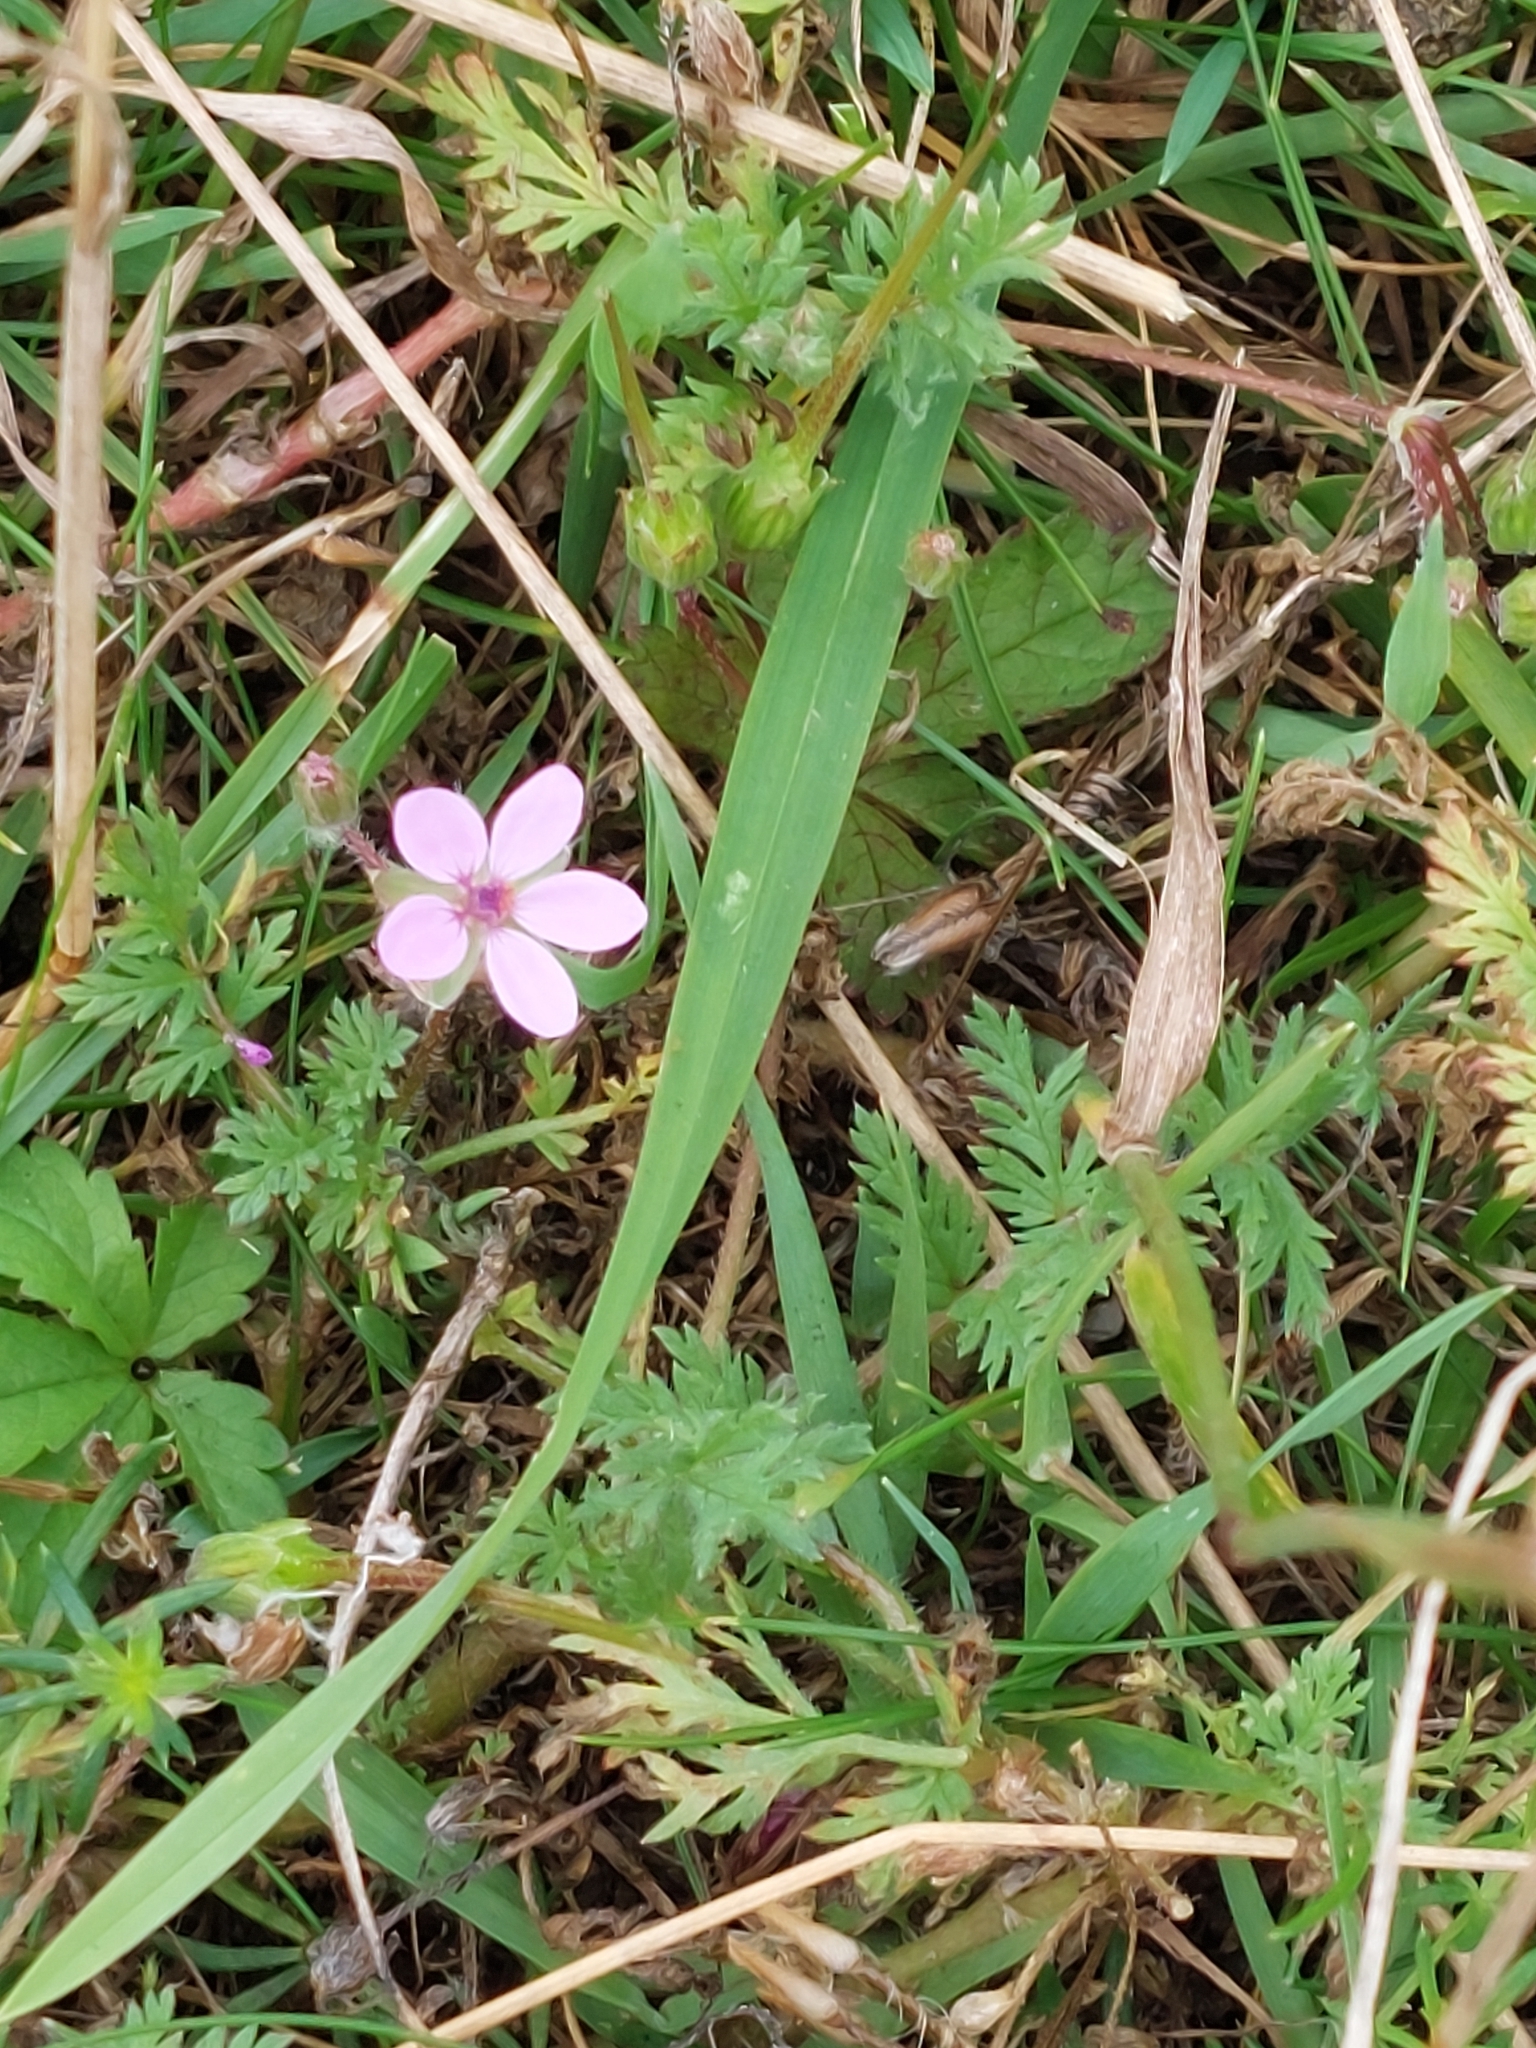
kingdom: Plantae
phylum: Tracheophyta
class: Magnoliopsida
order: Geraniales
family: Geraniaceae
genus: Erodium
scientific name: Erodium cicutarium
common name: Common stork's-bill
